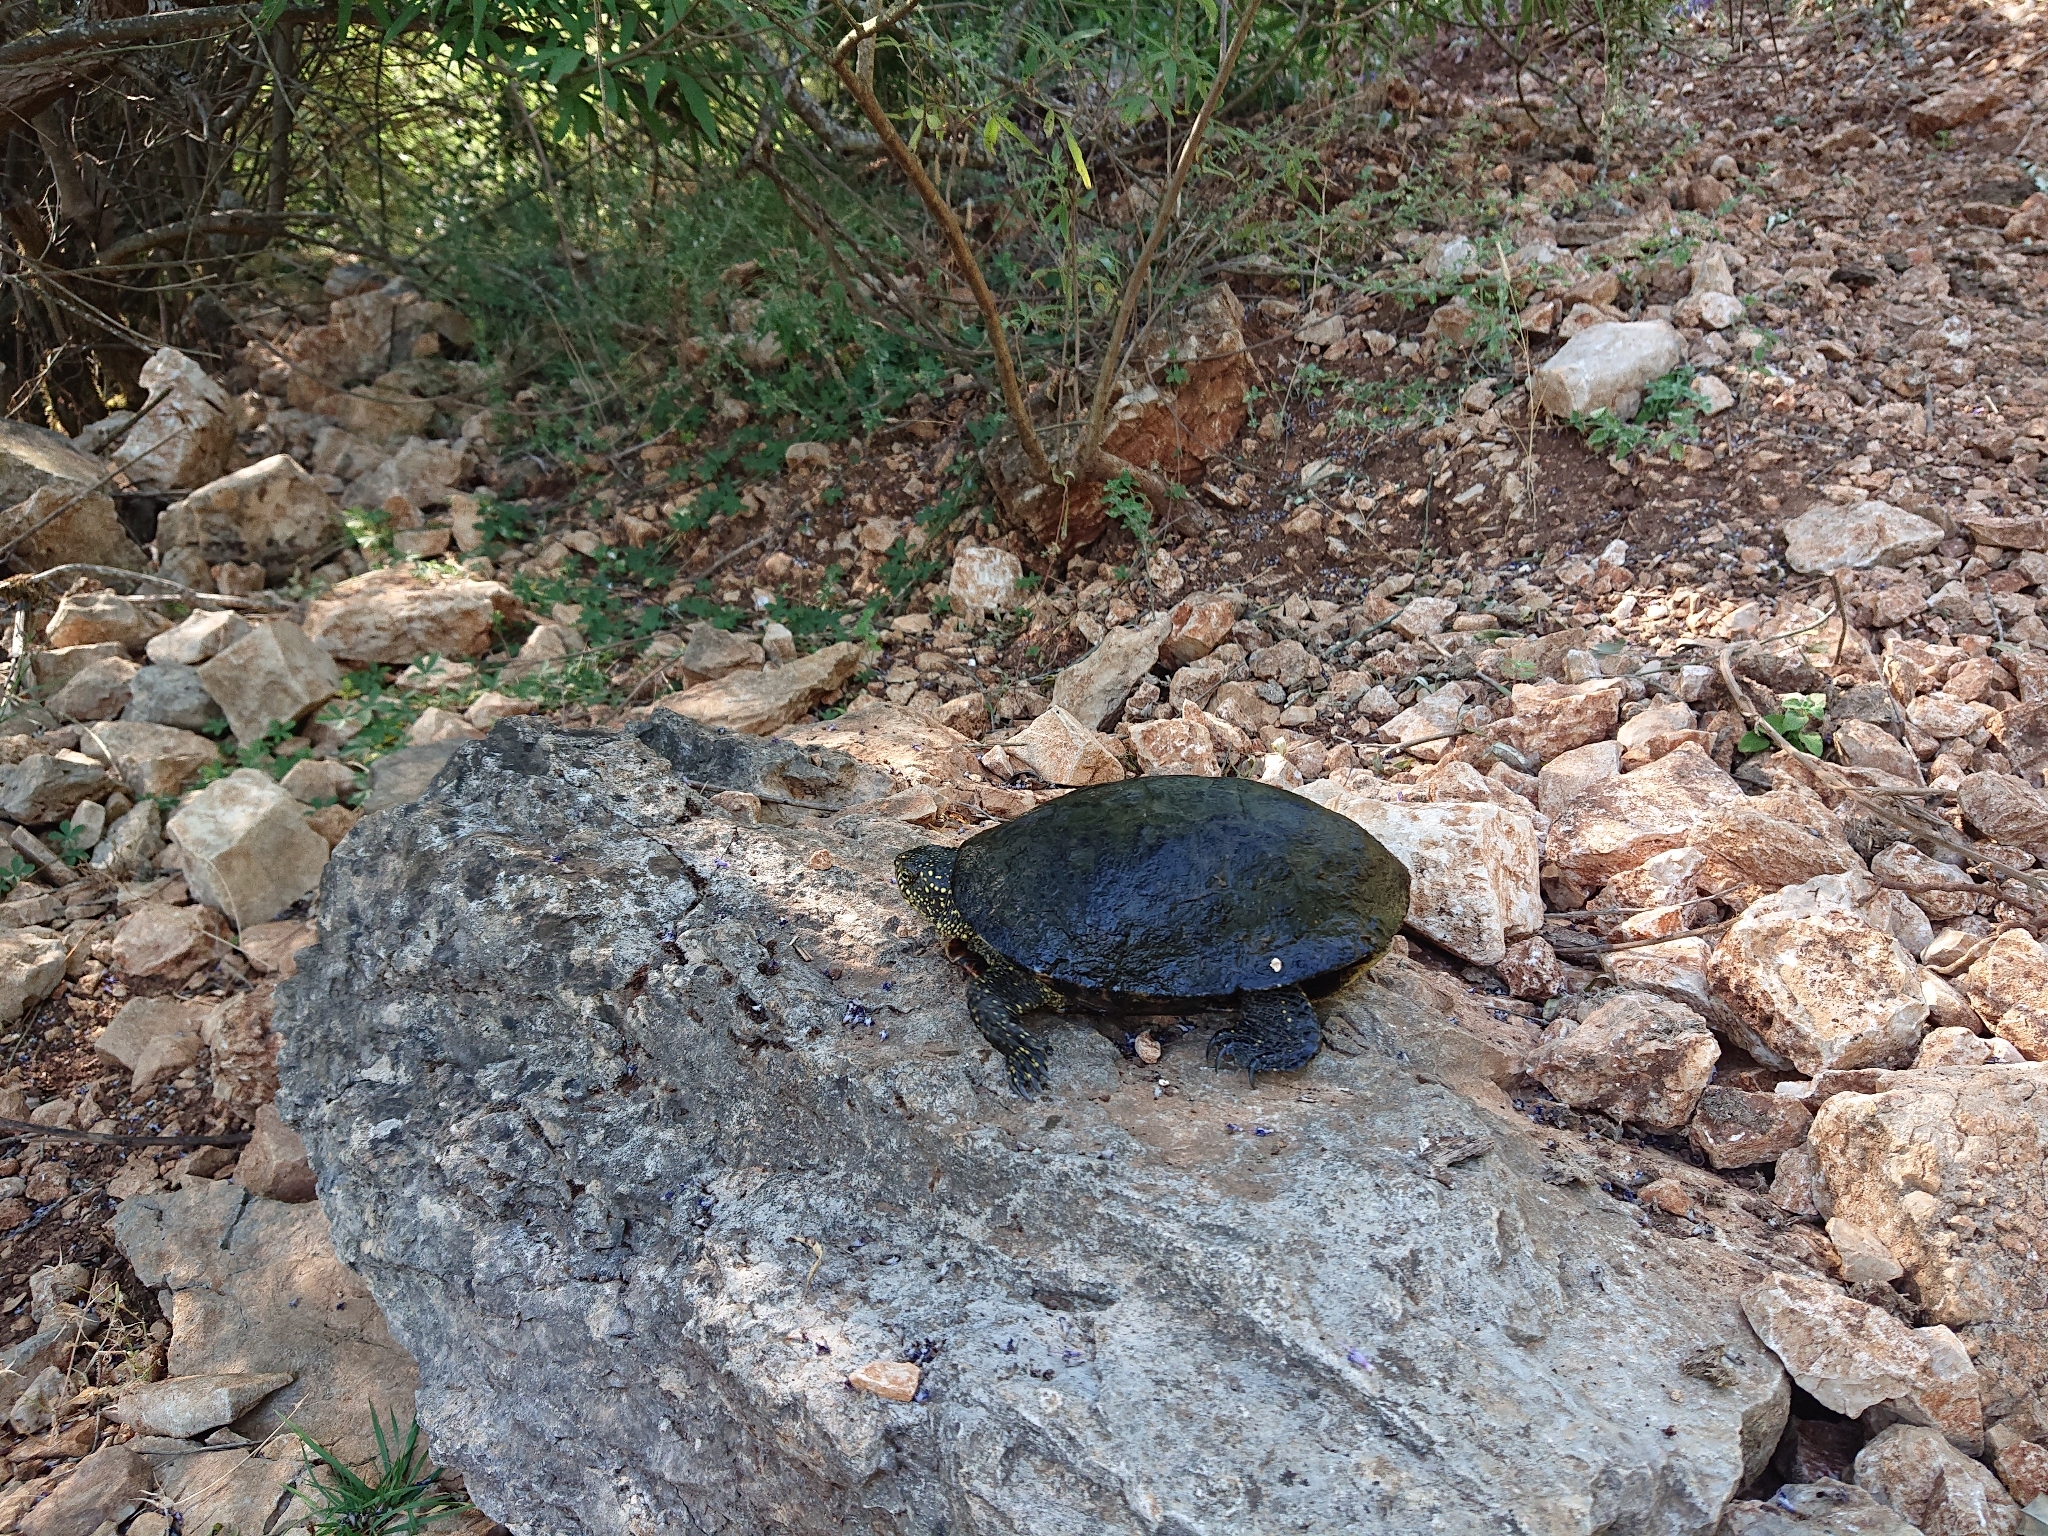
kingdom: Animalia
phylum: Chordata
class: Testudines
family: Emydidae
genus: Emys
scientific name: Emys orbicularis
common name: European pond turtle
